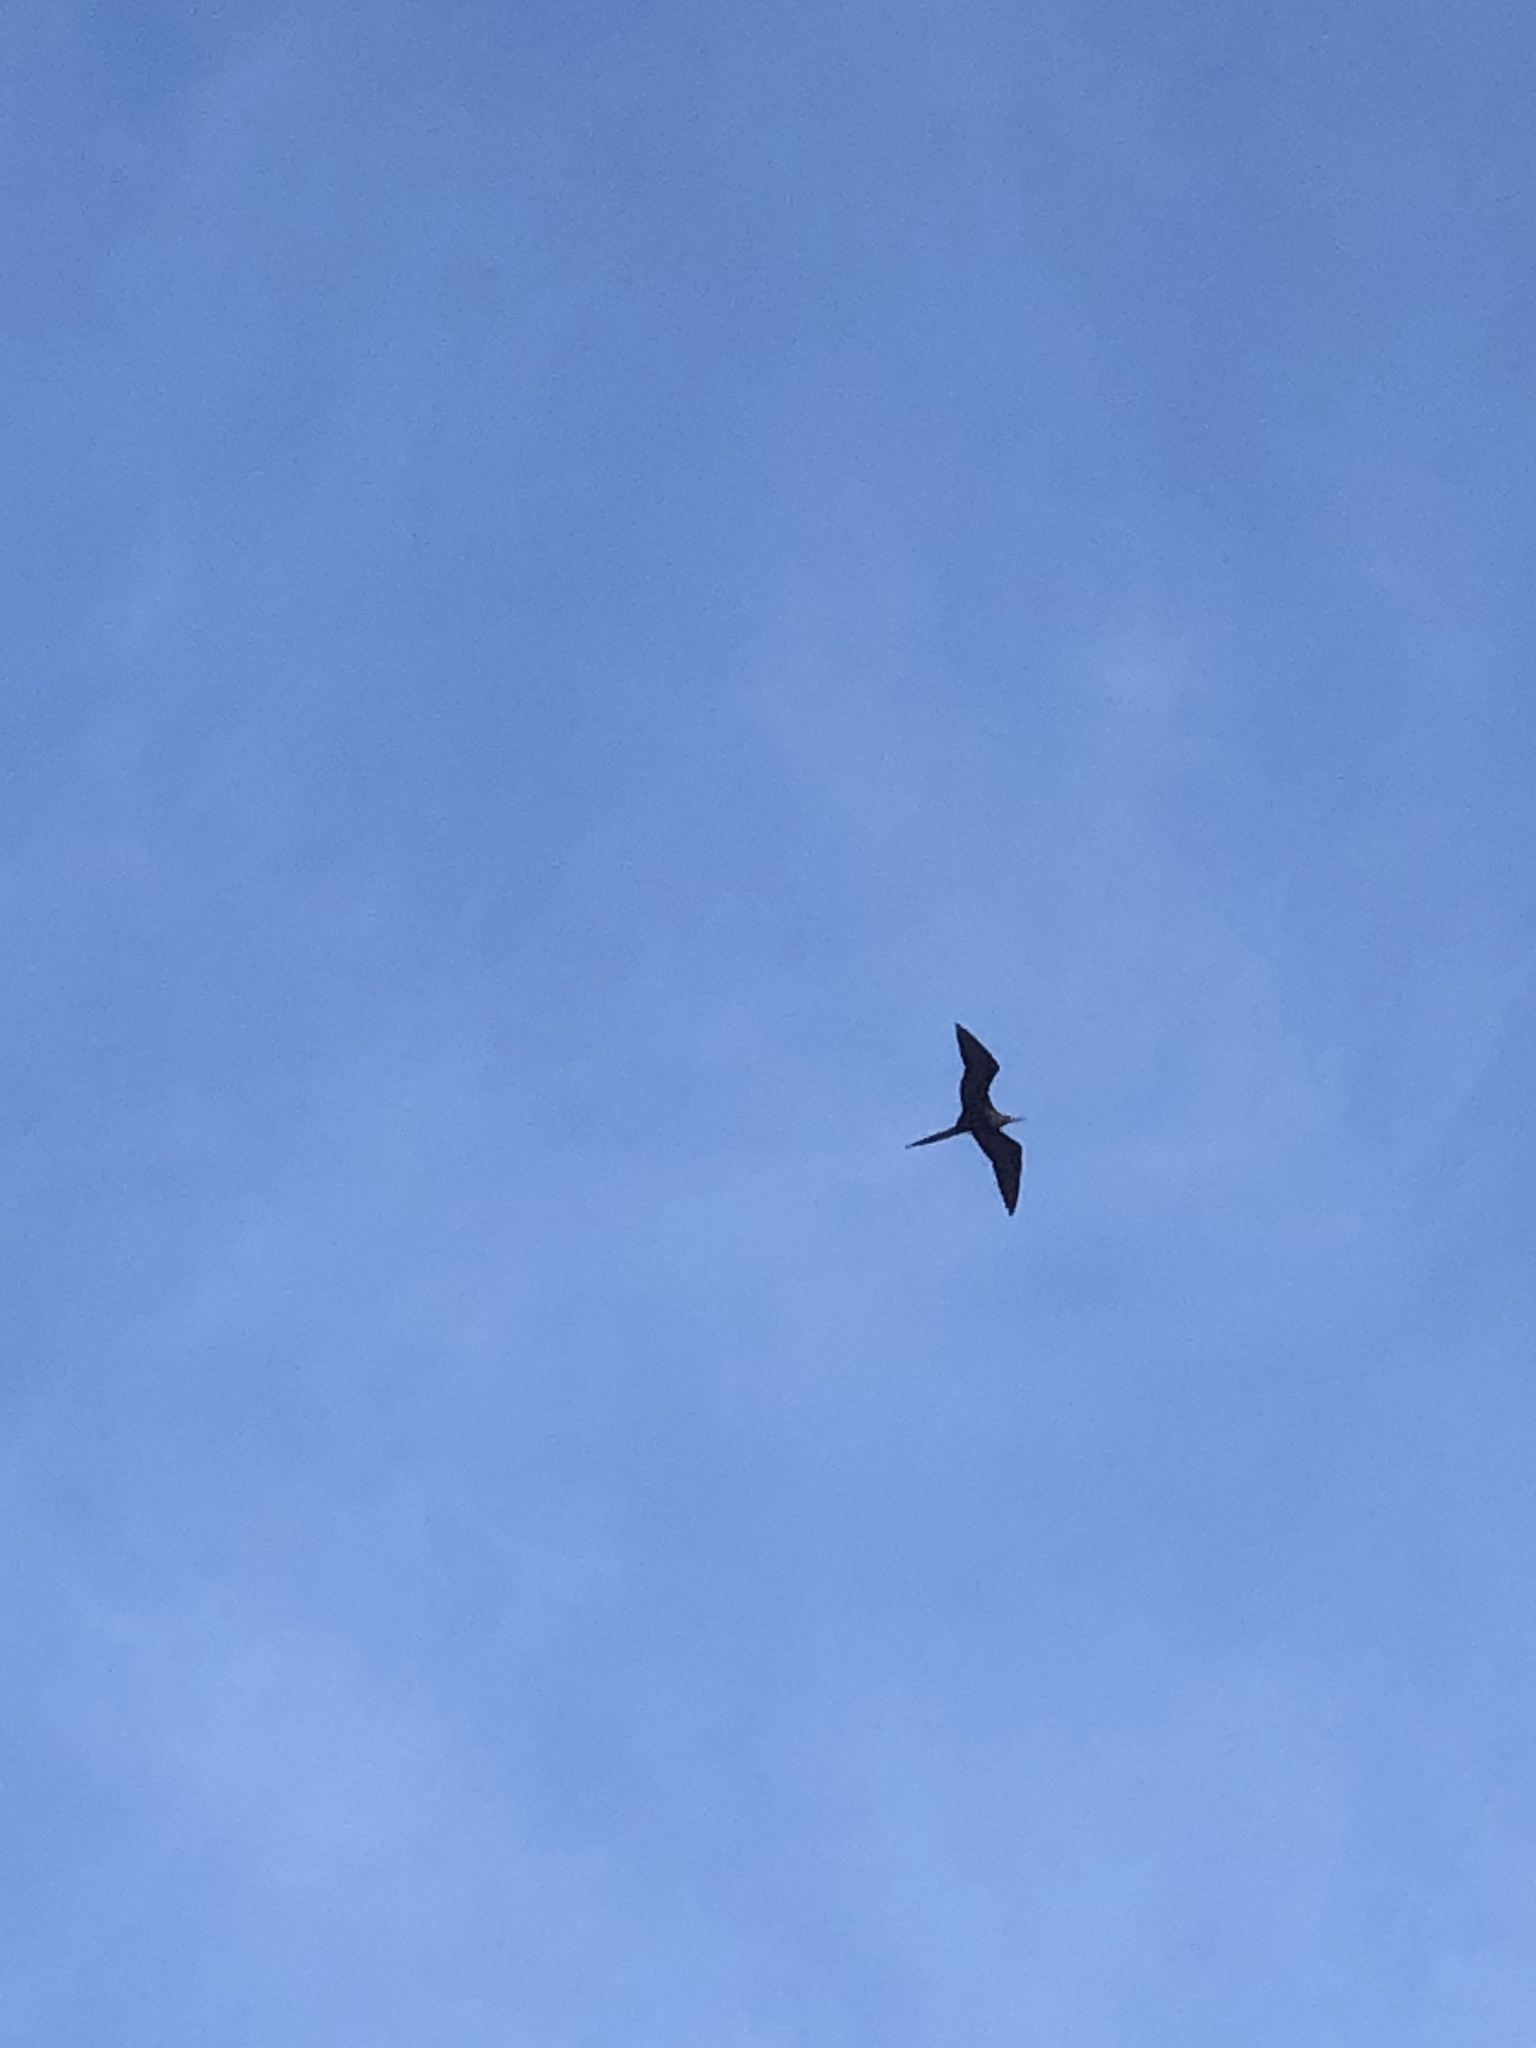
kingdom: Animalia
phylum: Chordata
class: Aves
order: Suliformes
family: Fregatidae
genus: Fregata
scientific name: Fregata magnificens
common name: Magnificent frigatebird
